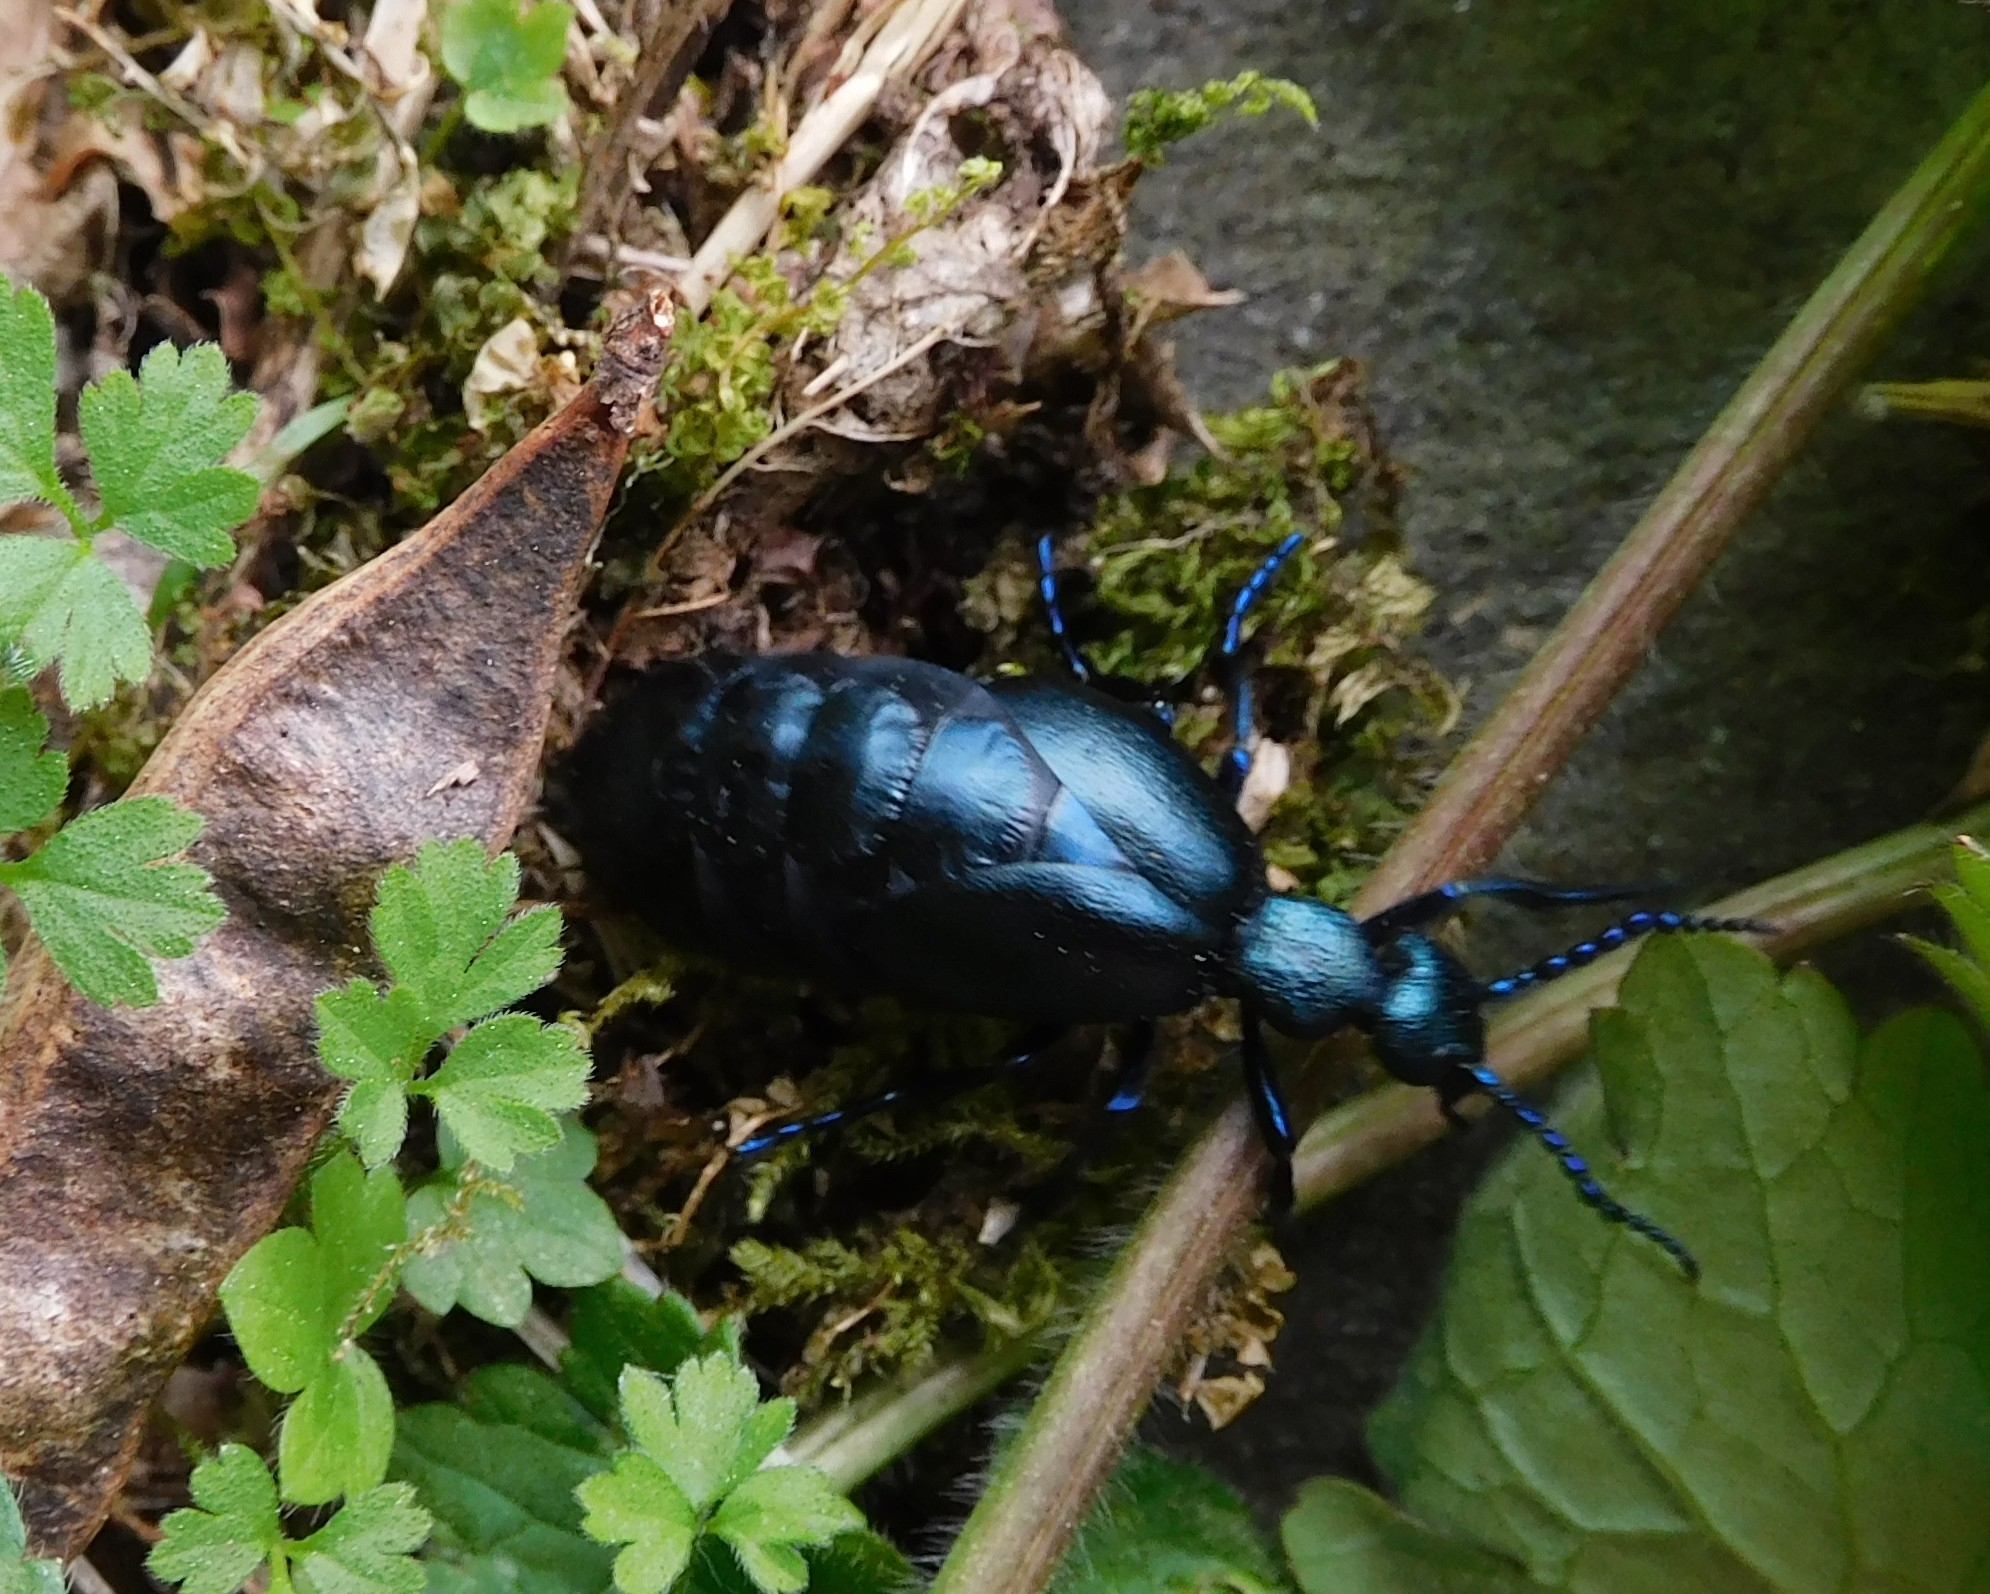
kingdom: Animalia
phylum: Arthropoda
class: Insecta
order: Coleoptera
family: Meloidae
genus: Meloe
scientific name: Meloe violaceus
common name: Violet oil-beetle
